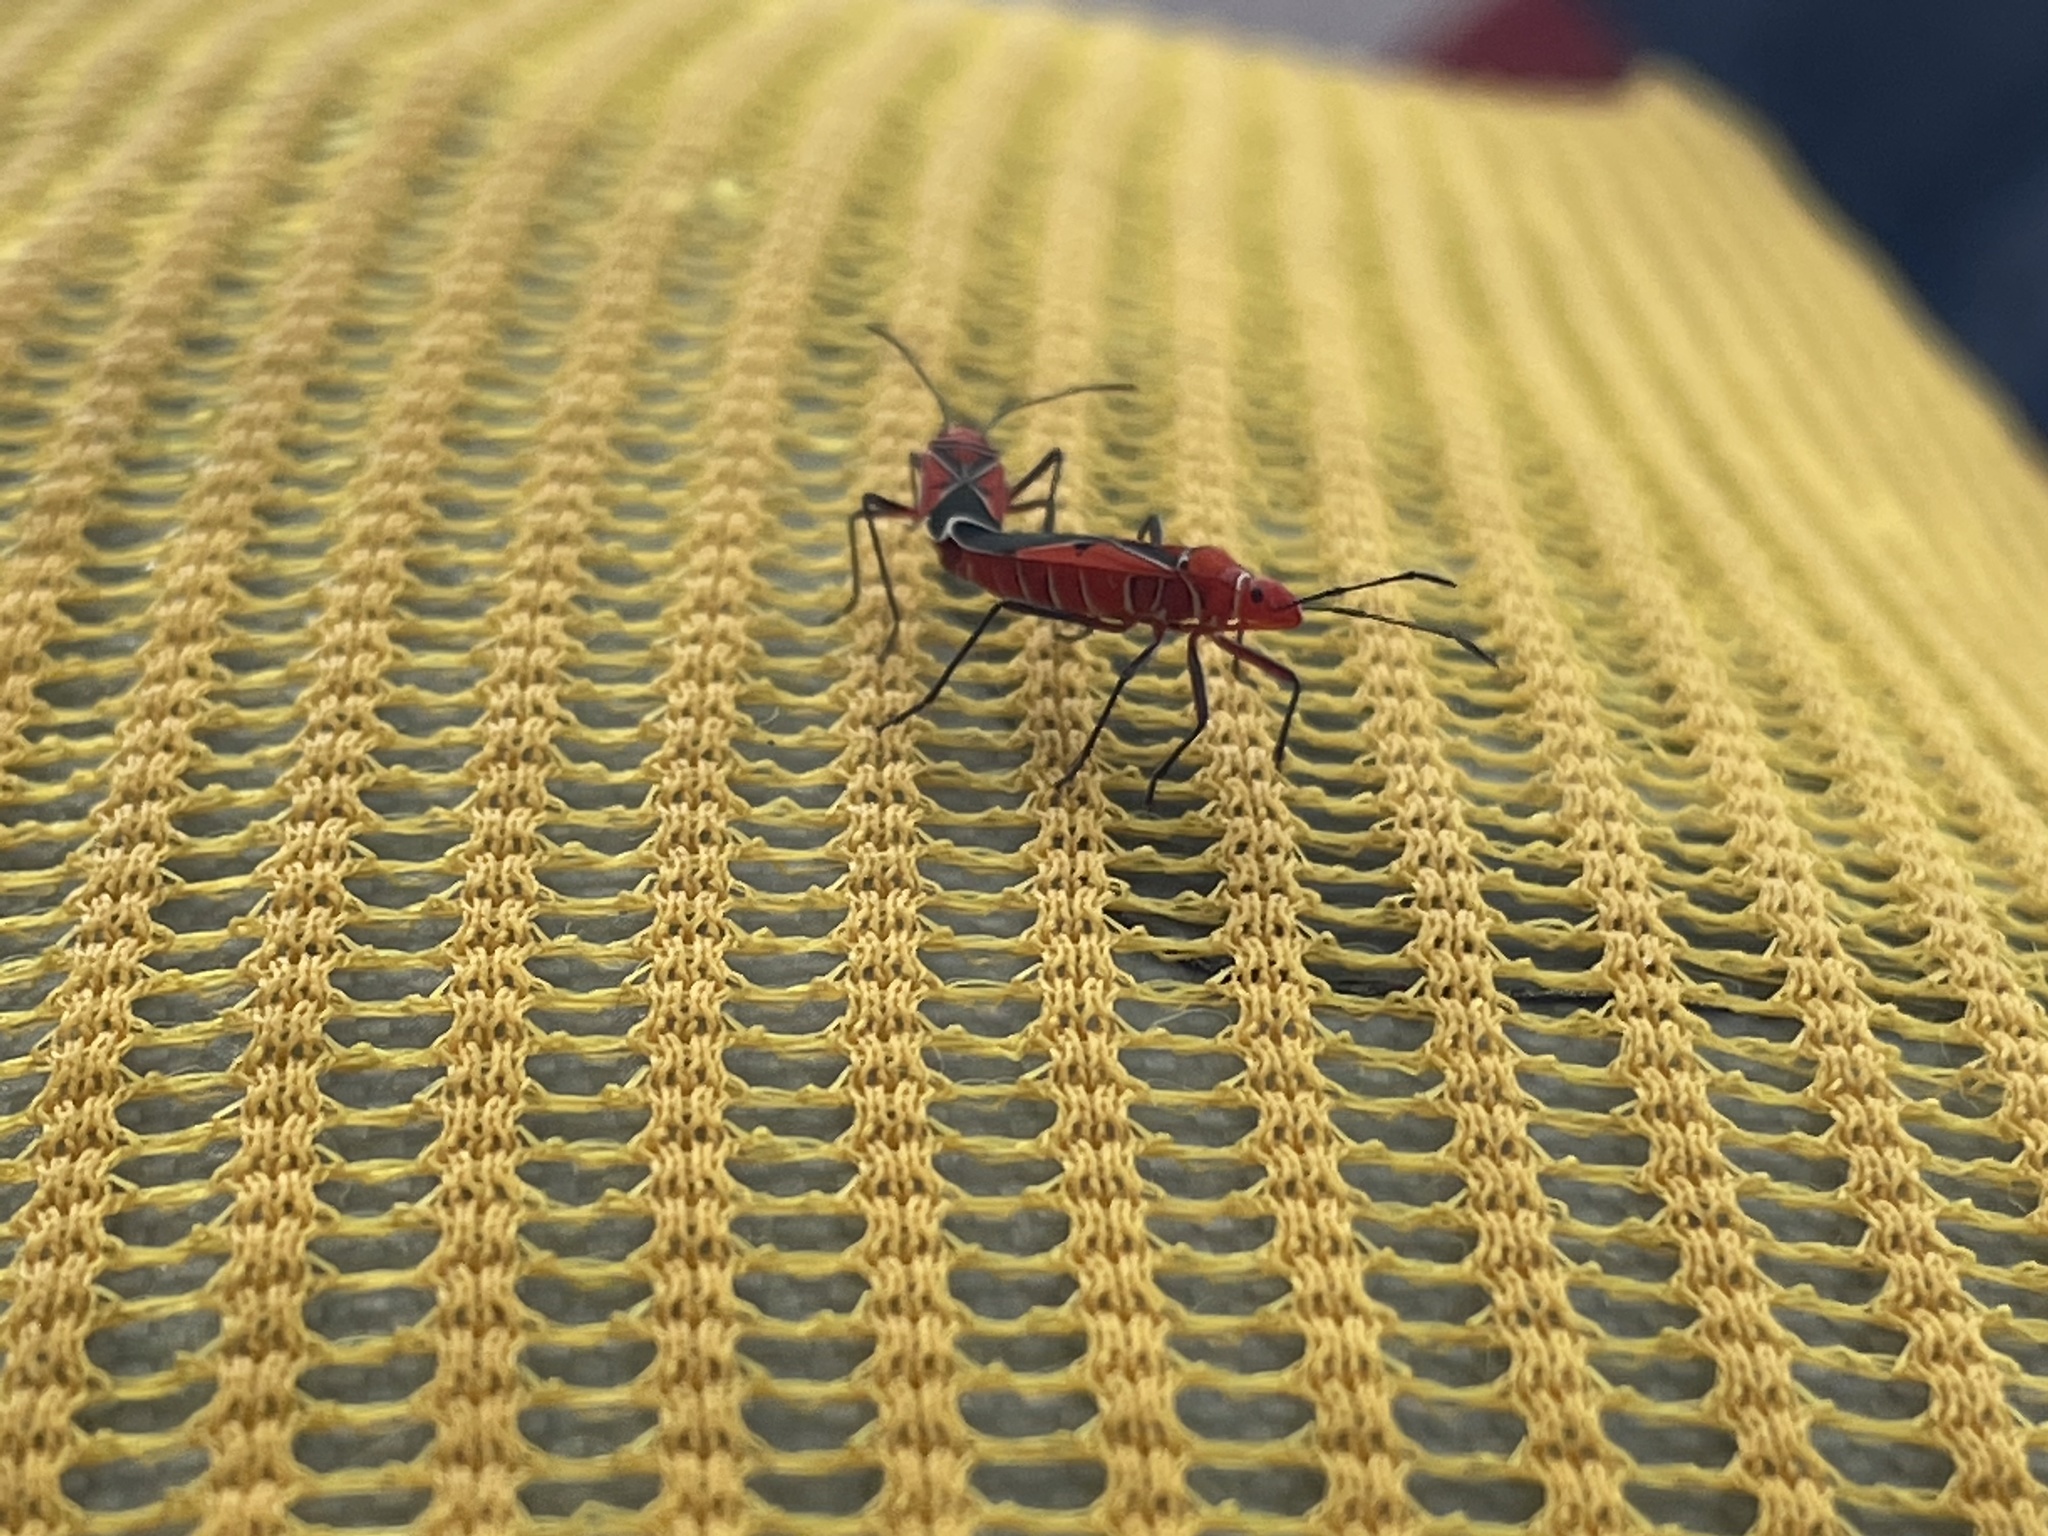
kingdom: Animalia
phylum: Arthropoda
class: Insecta
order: Hemiptera
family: Pyrrhocoridae
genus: Dysdercus
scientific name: Dysdercus andreae
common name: St. andrew's cotton stainer
